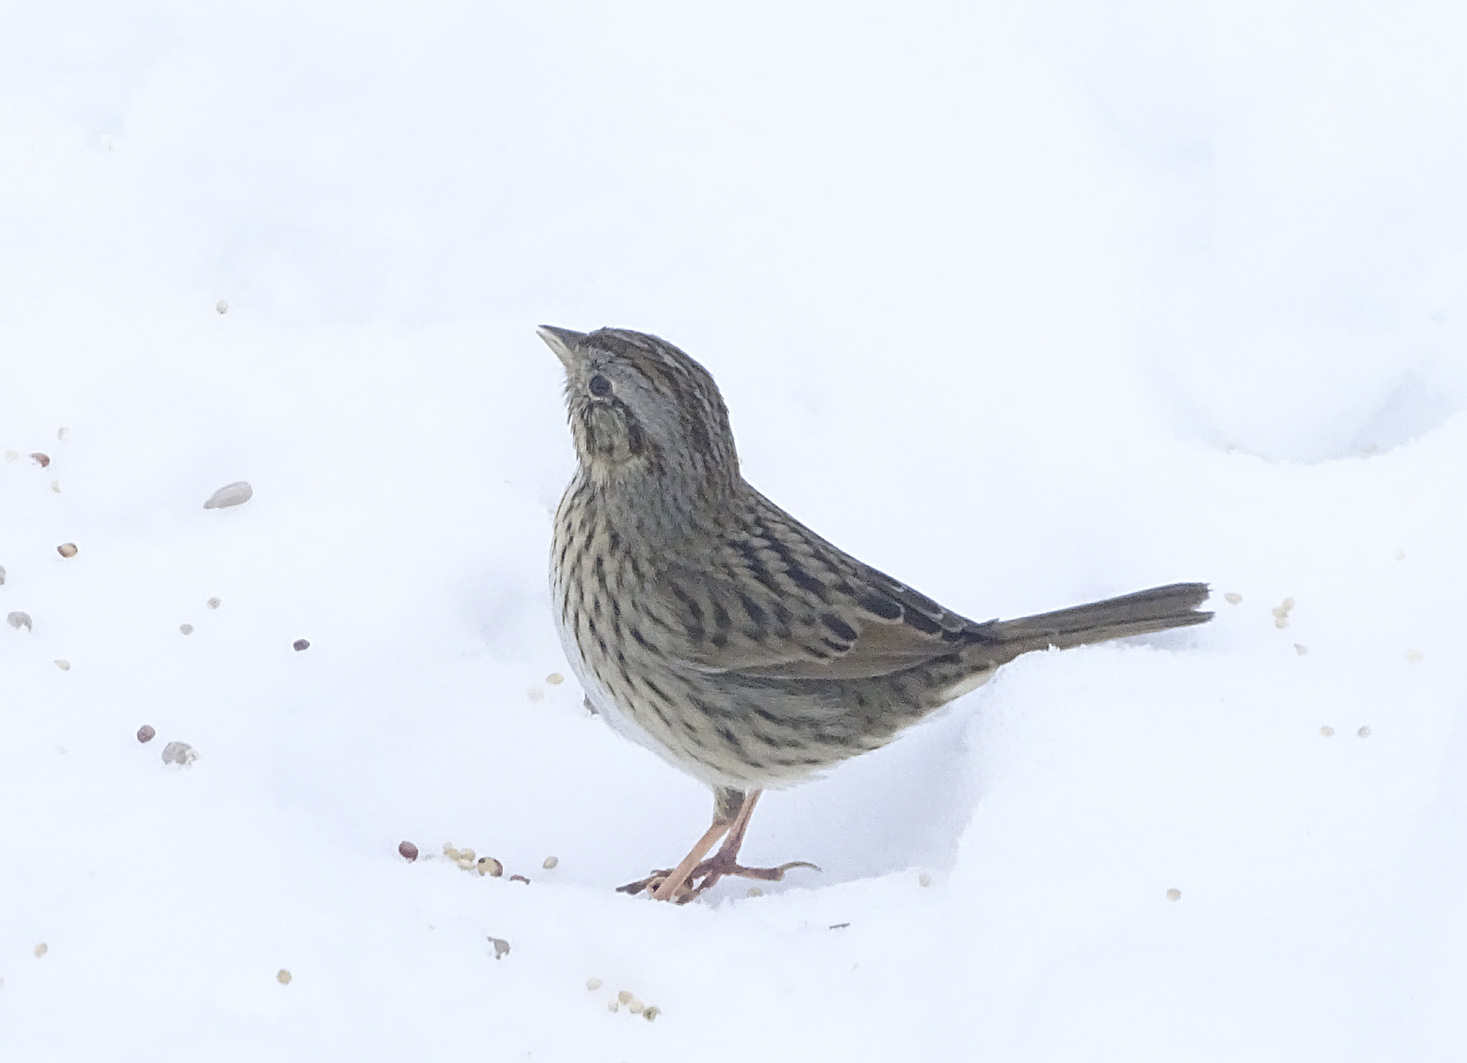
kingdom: Animalia
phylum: Chordata
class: Aves
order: Passeriformes
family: Passerellidae
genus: Melospiza
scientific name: Melospiza lincolnii
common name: Lincoln's sparrow
